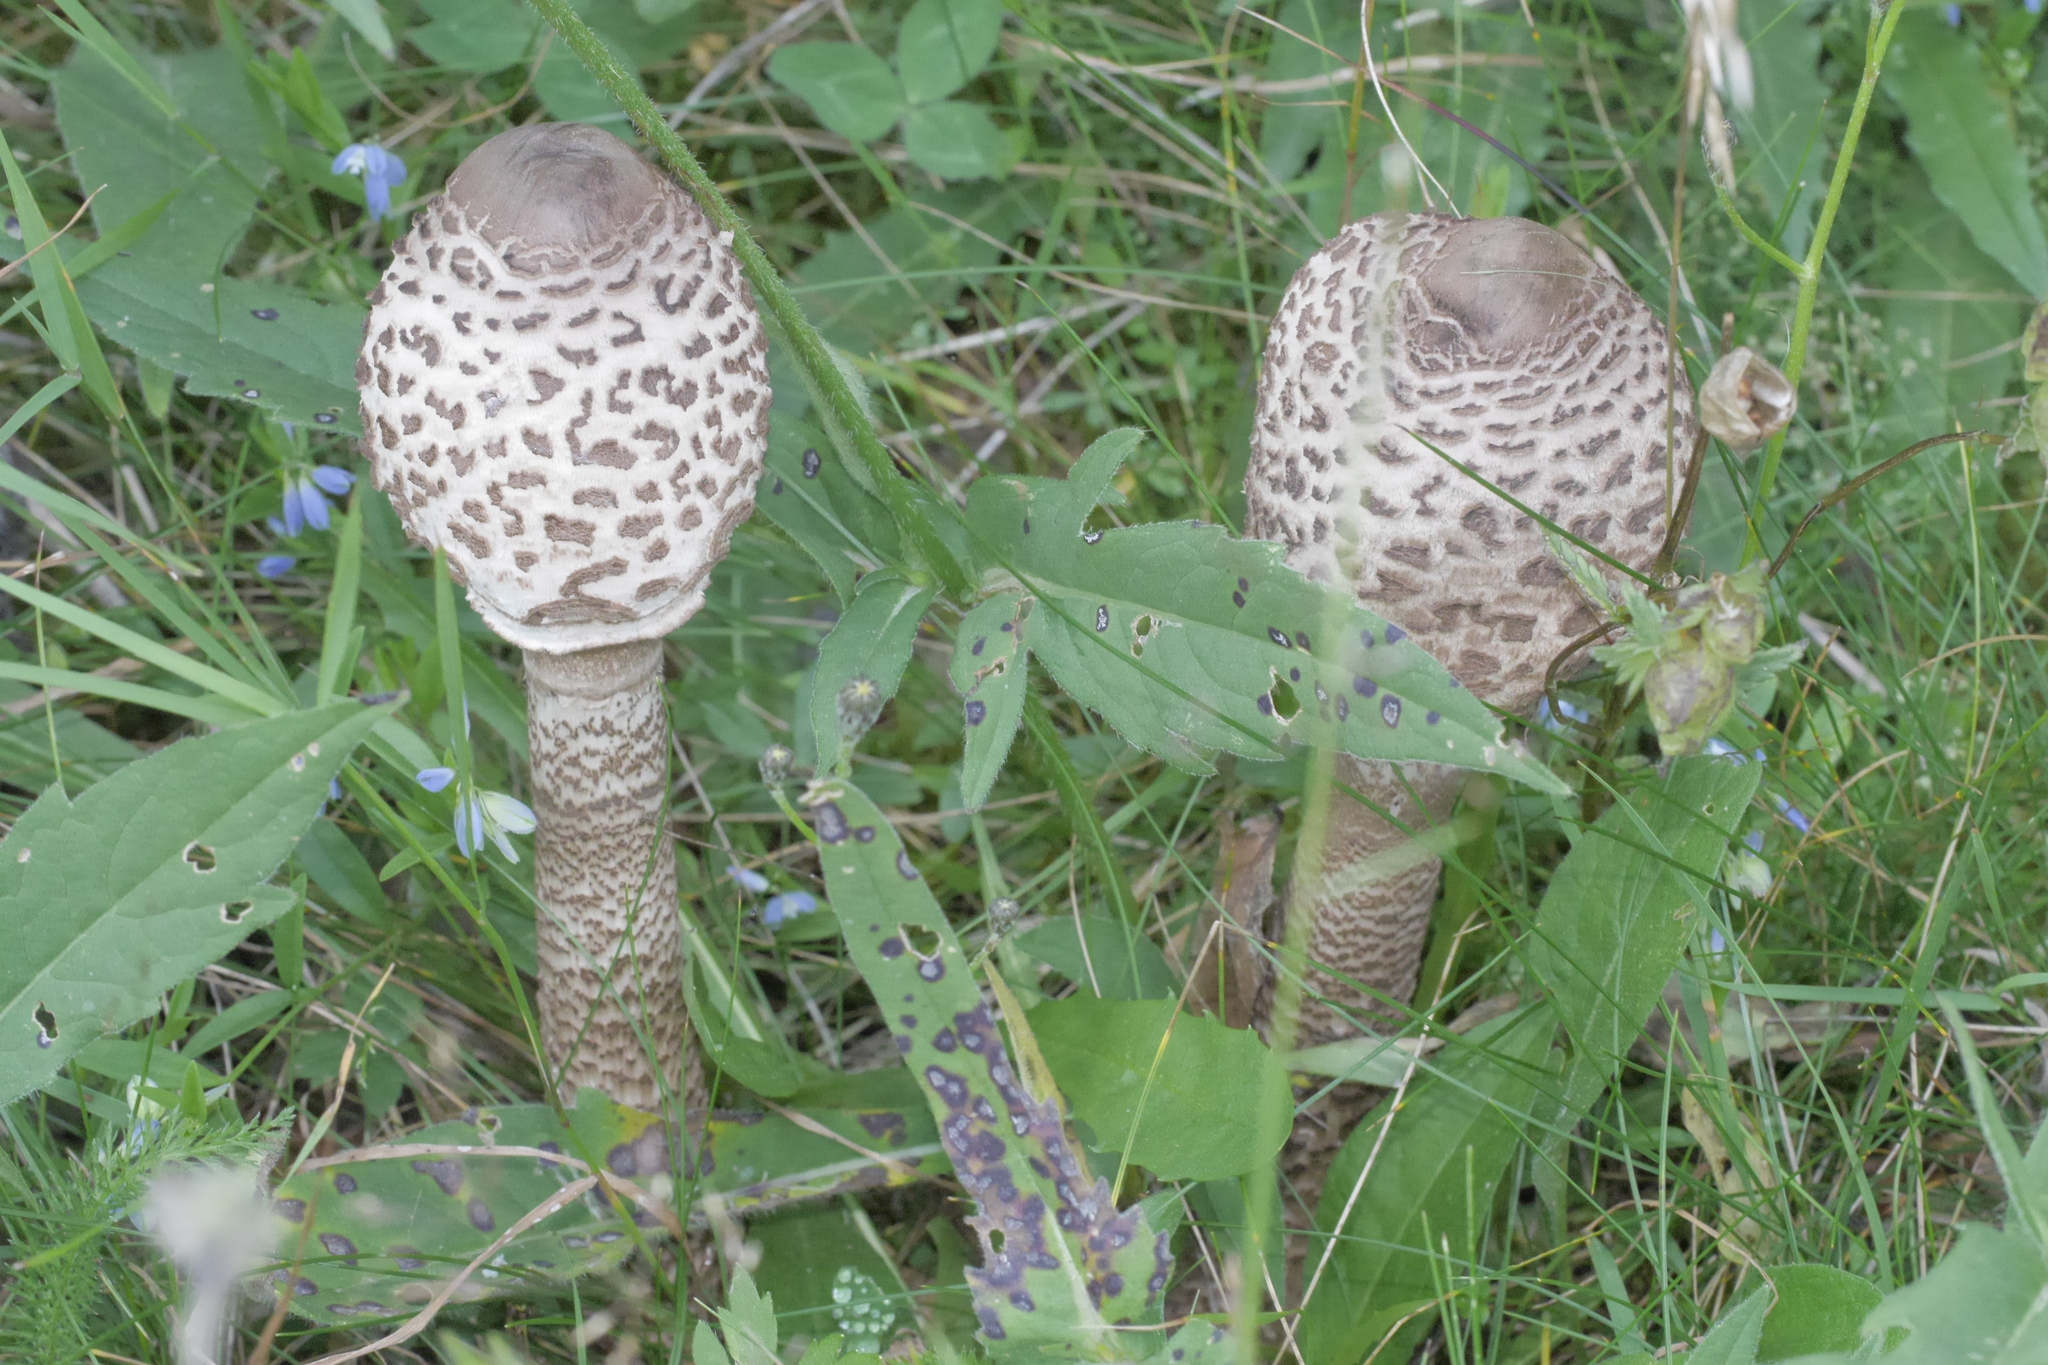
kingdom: Fungi
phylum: Basidiomycota
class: Agaricomycetes
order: Agaricales
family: Agaricaceae
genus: Macrolepiota
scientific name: Macrolepiota procera
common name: Parasol
